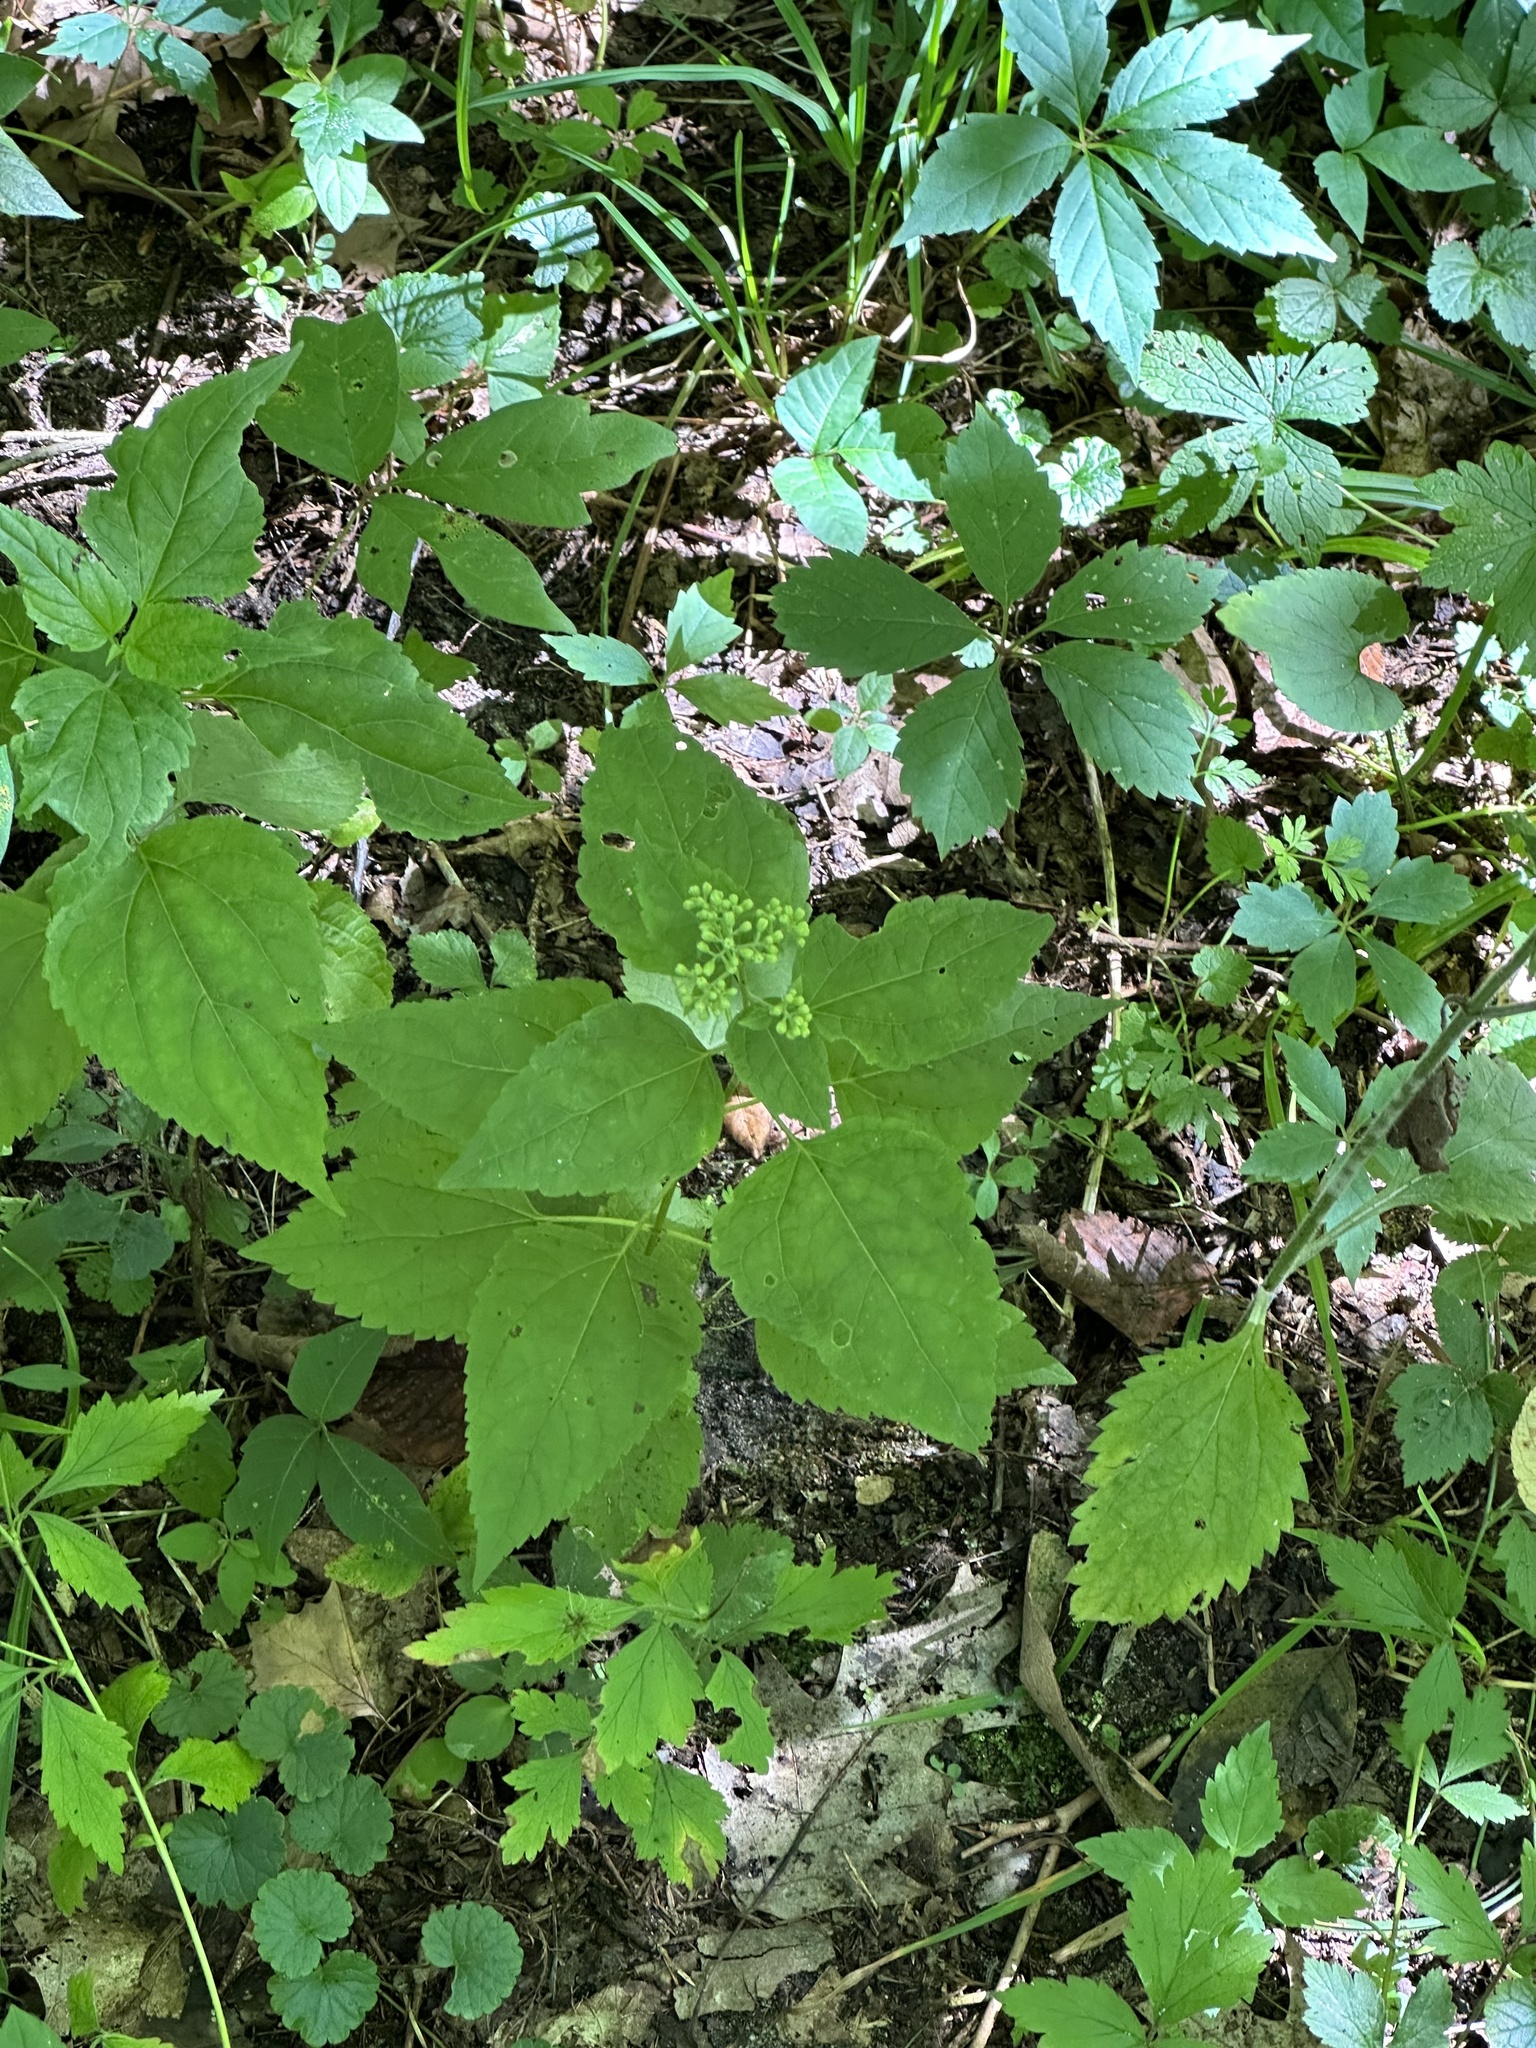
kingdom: Plantae
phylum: Tracheophyta
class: Magnoliopsida
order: Asterales
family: Asteraceae
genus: Ageratina
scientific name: Ageratina altissima
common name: White snakeroot
